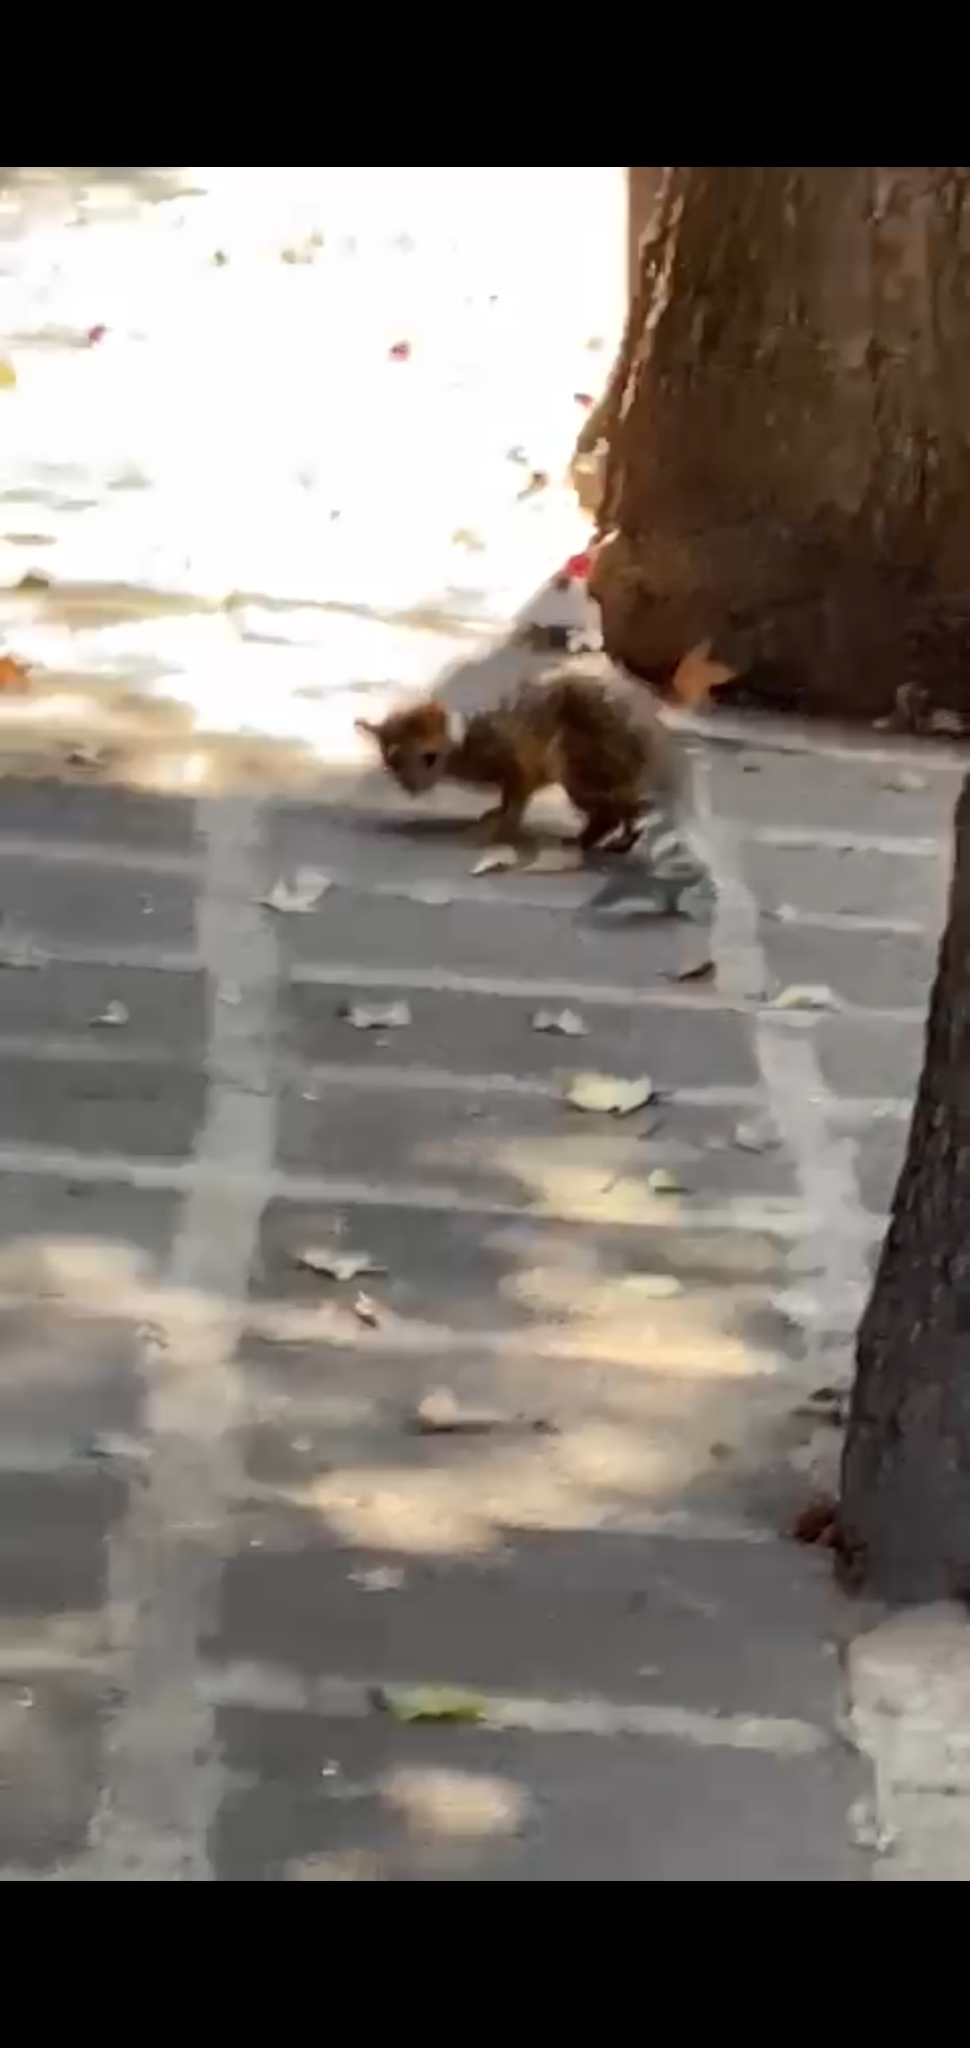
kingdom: Animalia
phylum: Chordata
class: Mammalia
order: Carnivora
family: Procyonidae
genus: Bassariscus
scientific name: Bassariscus astutus
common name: Ringtail
